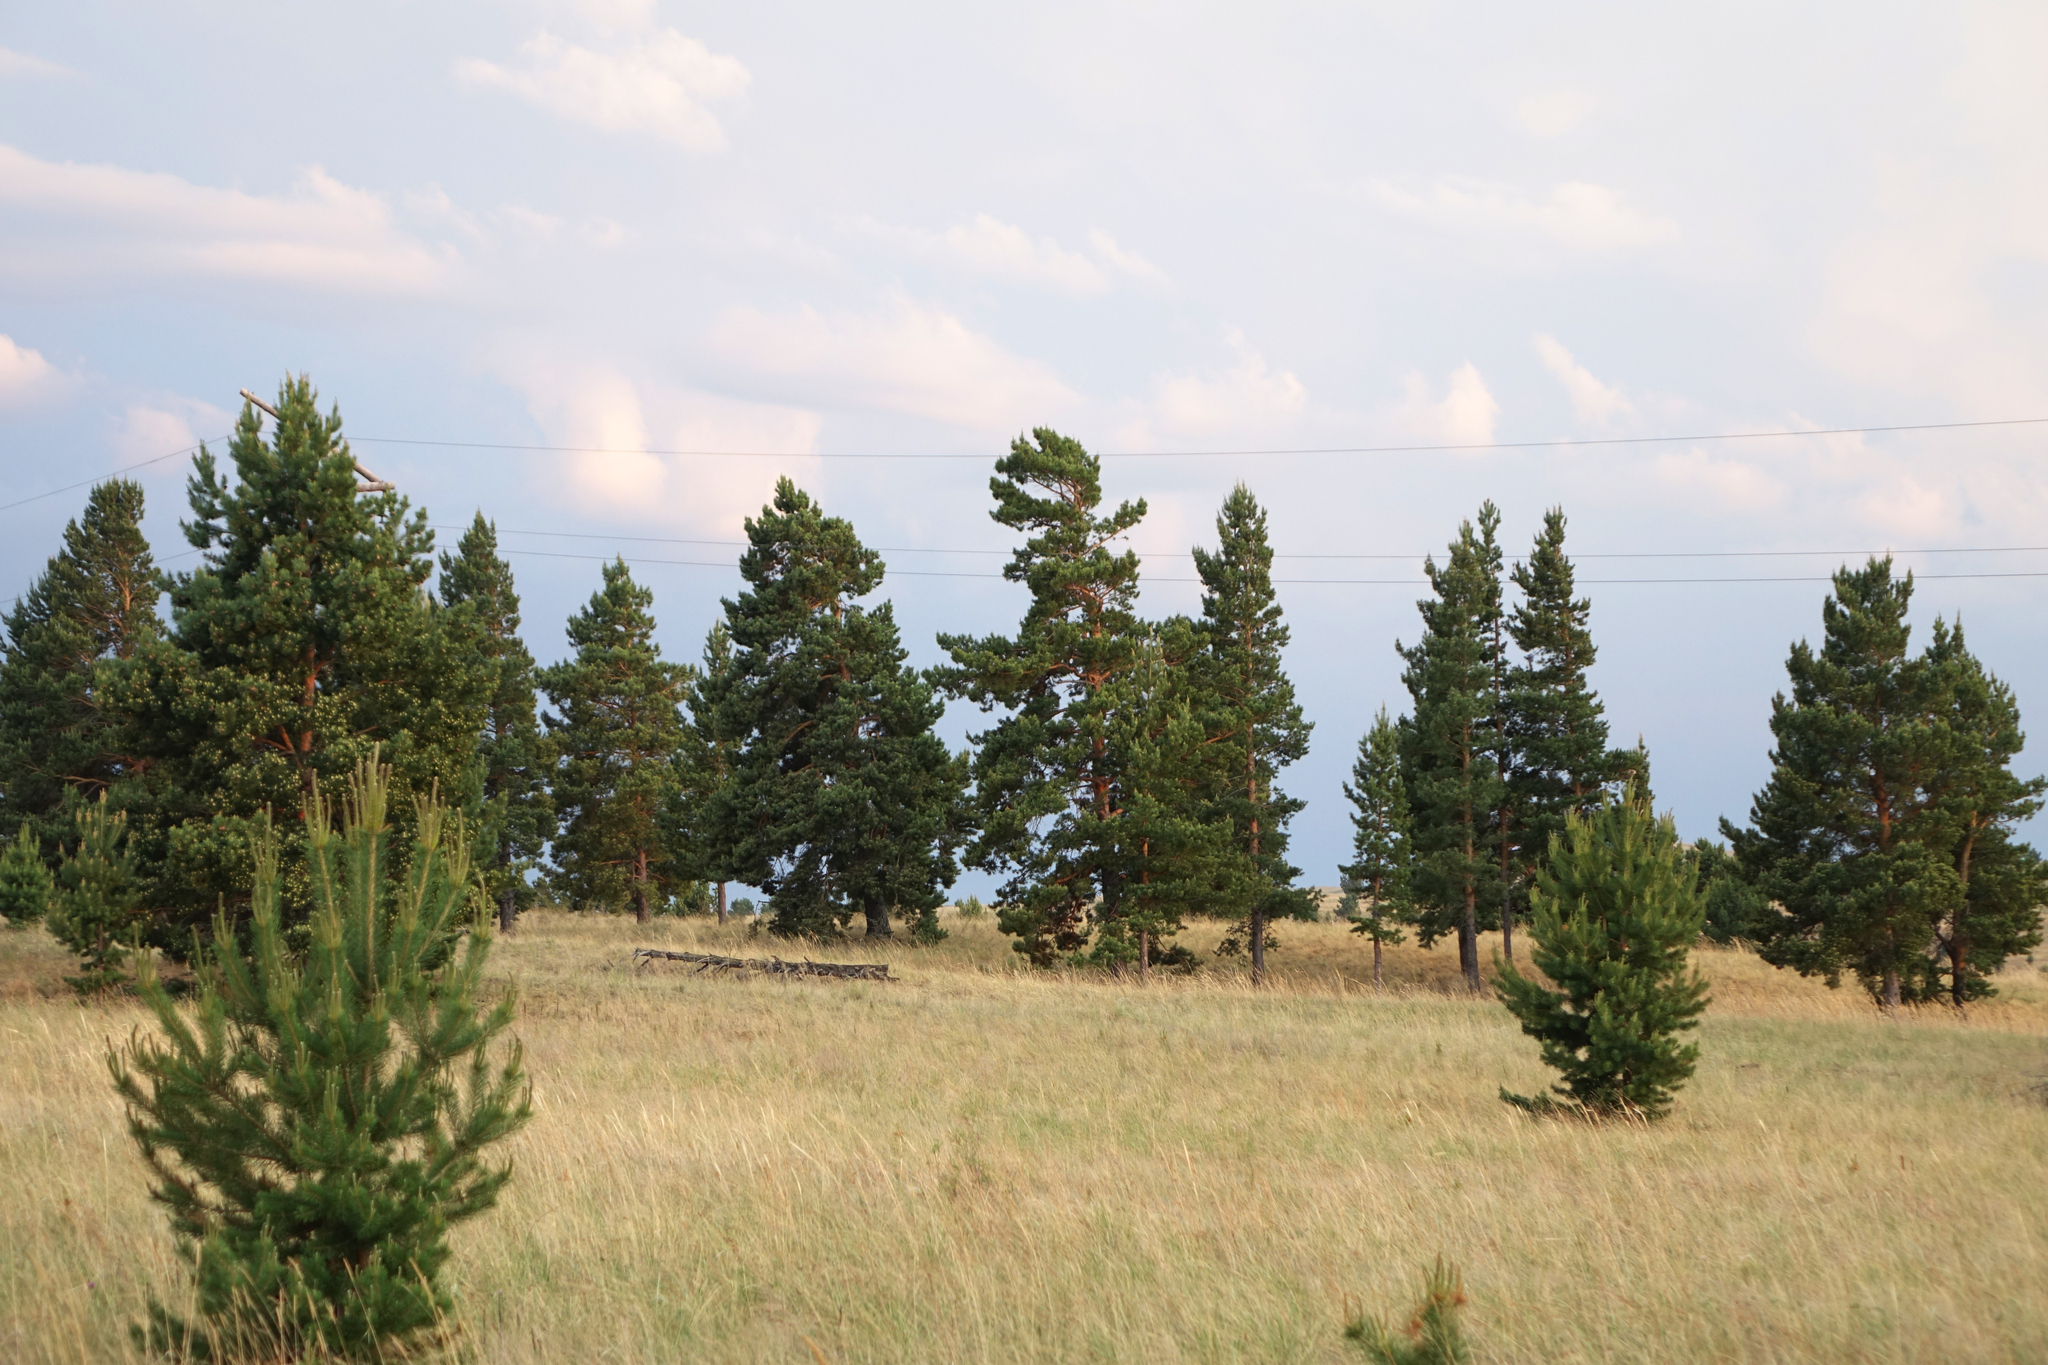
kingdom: Plantae
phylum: Tracheophyta
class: Pinopsida
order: Pinales
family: Pinaceae
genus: Pinus
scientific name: Pinus sylvestris
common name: Scots pine
